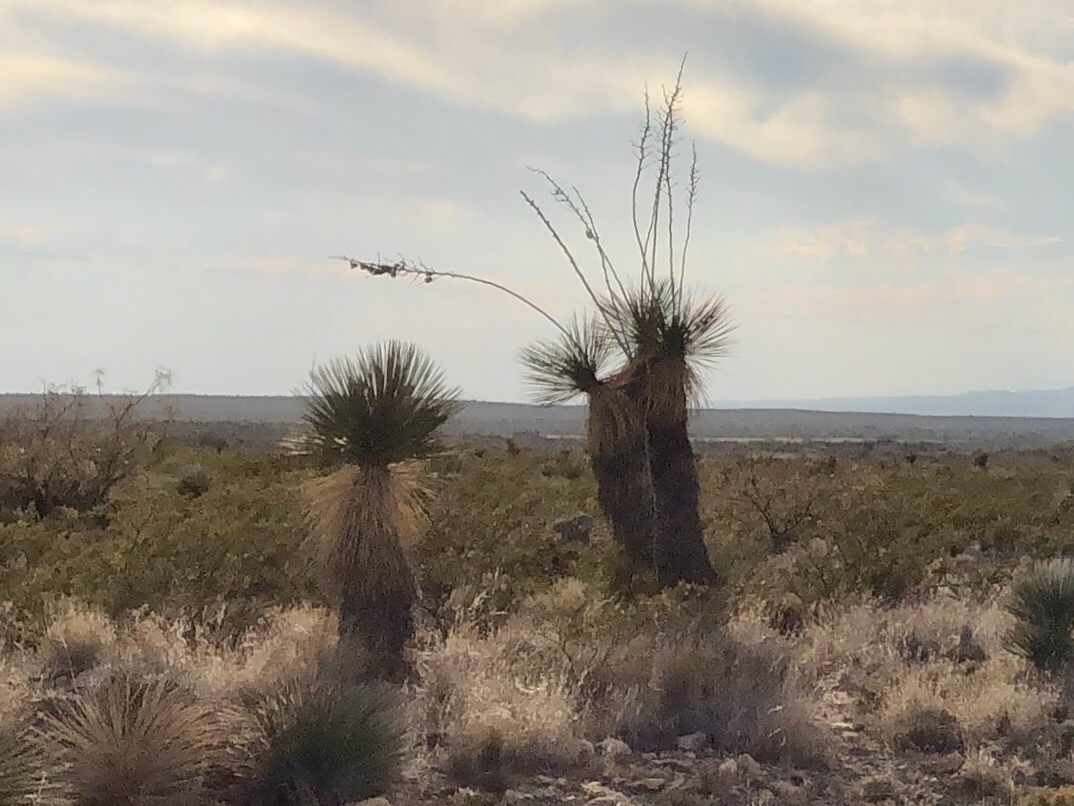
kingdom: Plantae
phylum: Tracheophyta
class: Liliopsida
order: Asparagales
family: Asparagaceae
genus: Yucca
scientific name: Yucca elata
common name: Palmella
